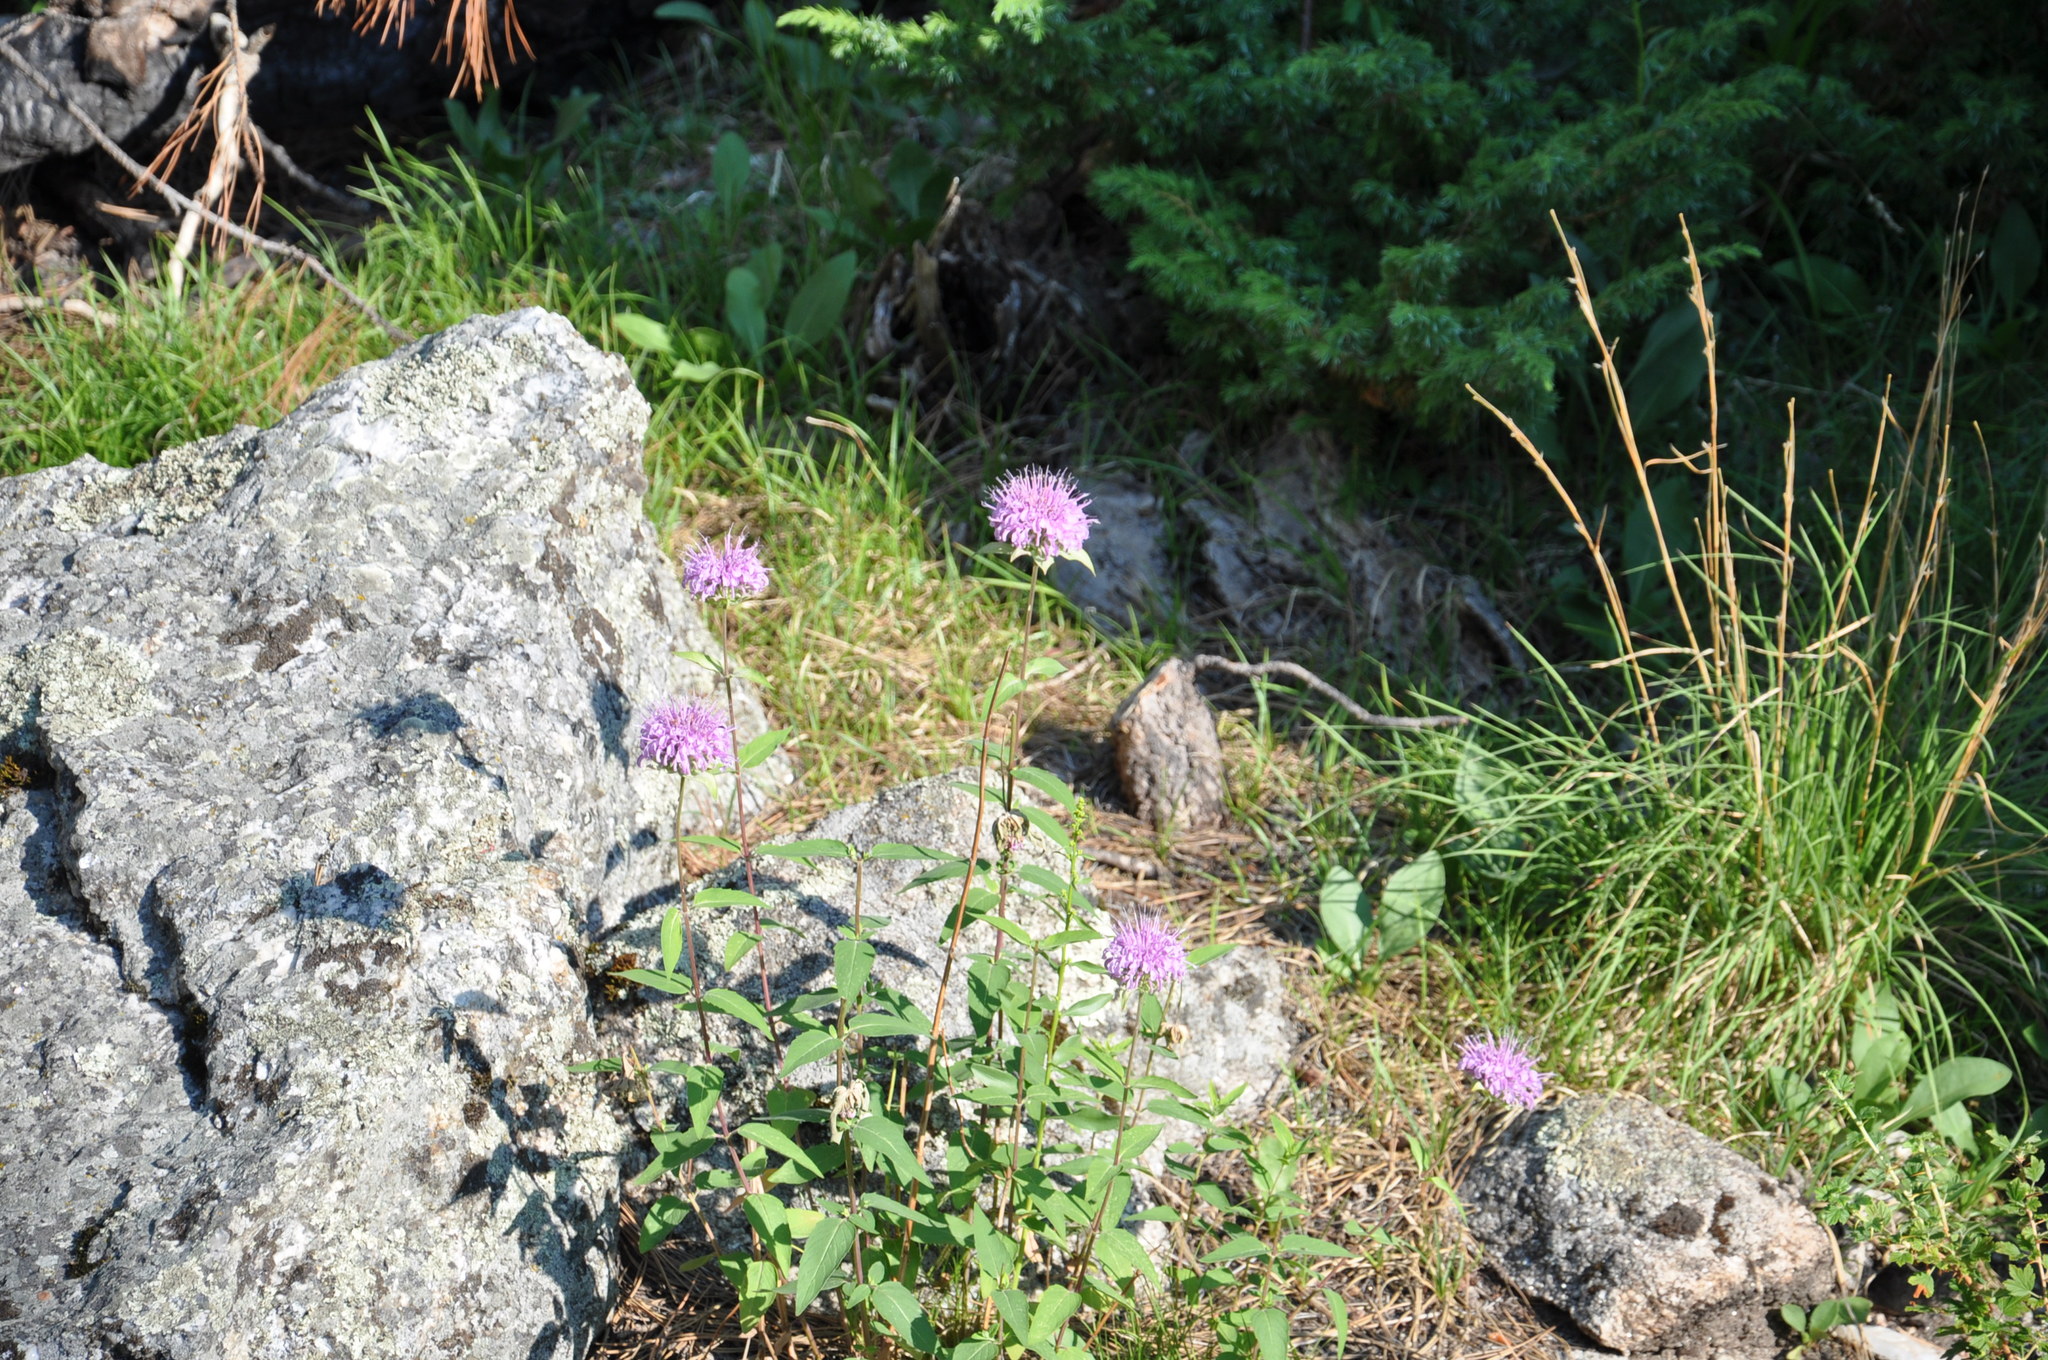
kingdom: Plantae
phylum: Tracheophyta
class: Magnoliopsida
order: Lamiales
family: Lamiaceae
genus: Monarda
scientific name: Monarda fistulosa
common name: Purple beebalm
